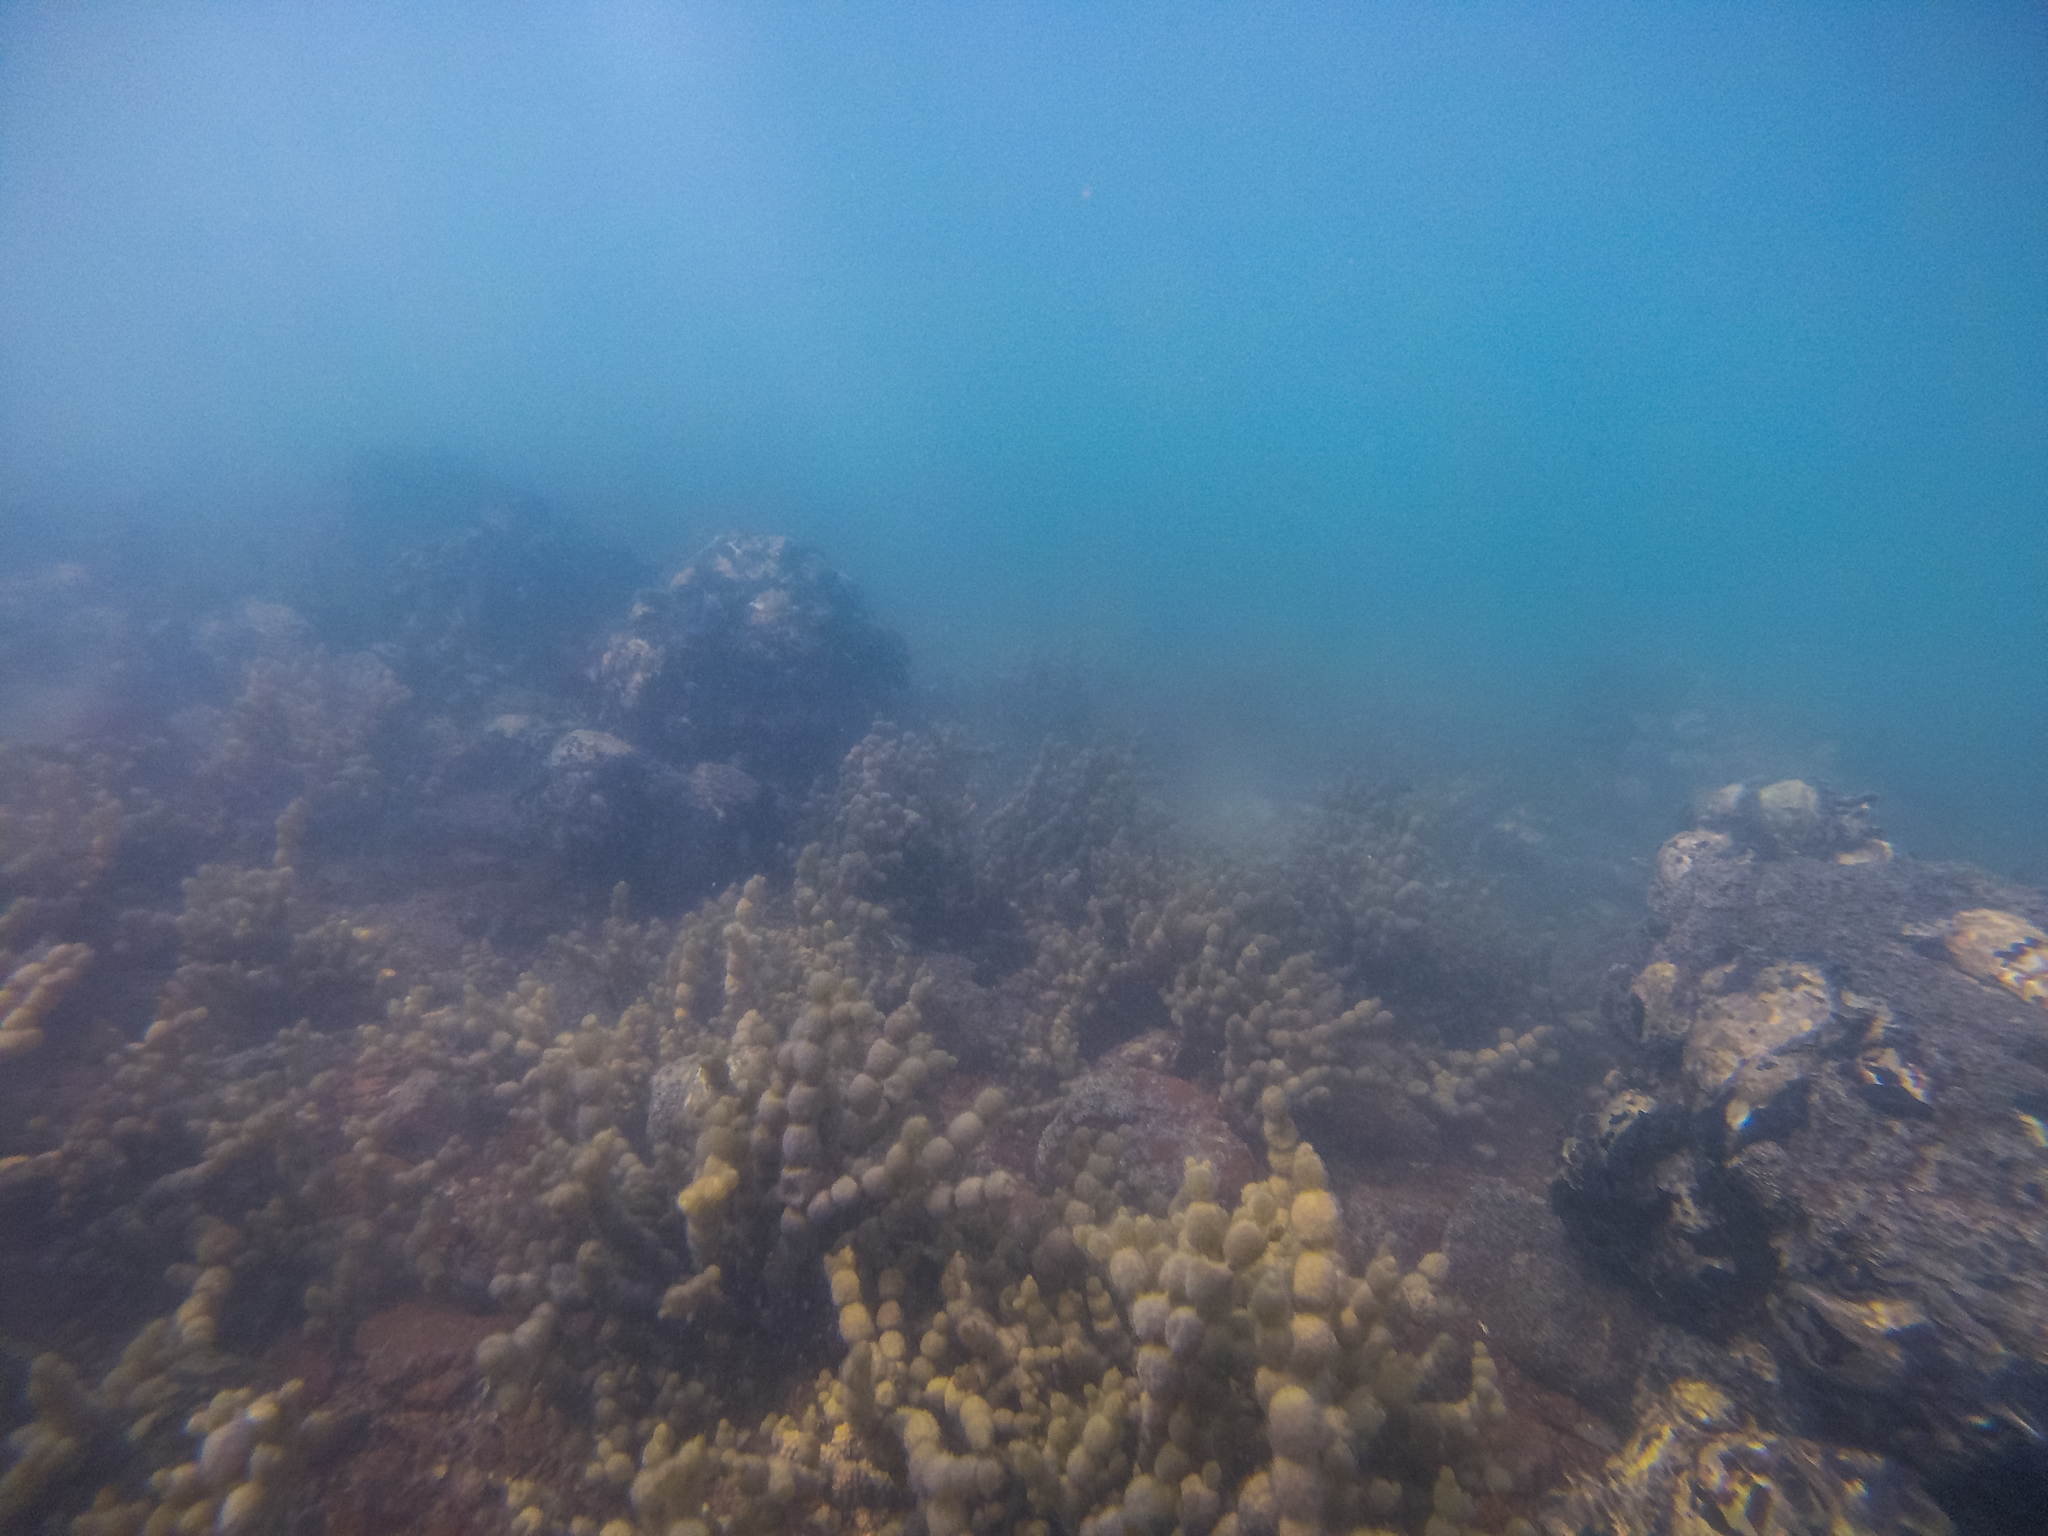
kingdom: Chromista
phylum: Ochrophyta
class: Phaeophyceae
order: Fucales
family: Hormosiraceae
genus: Hormosira
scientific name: Hormosira banksii
